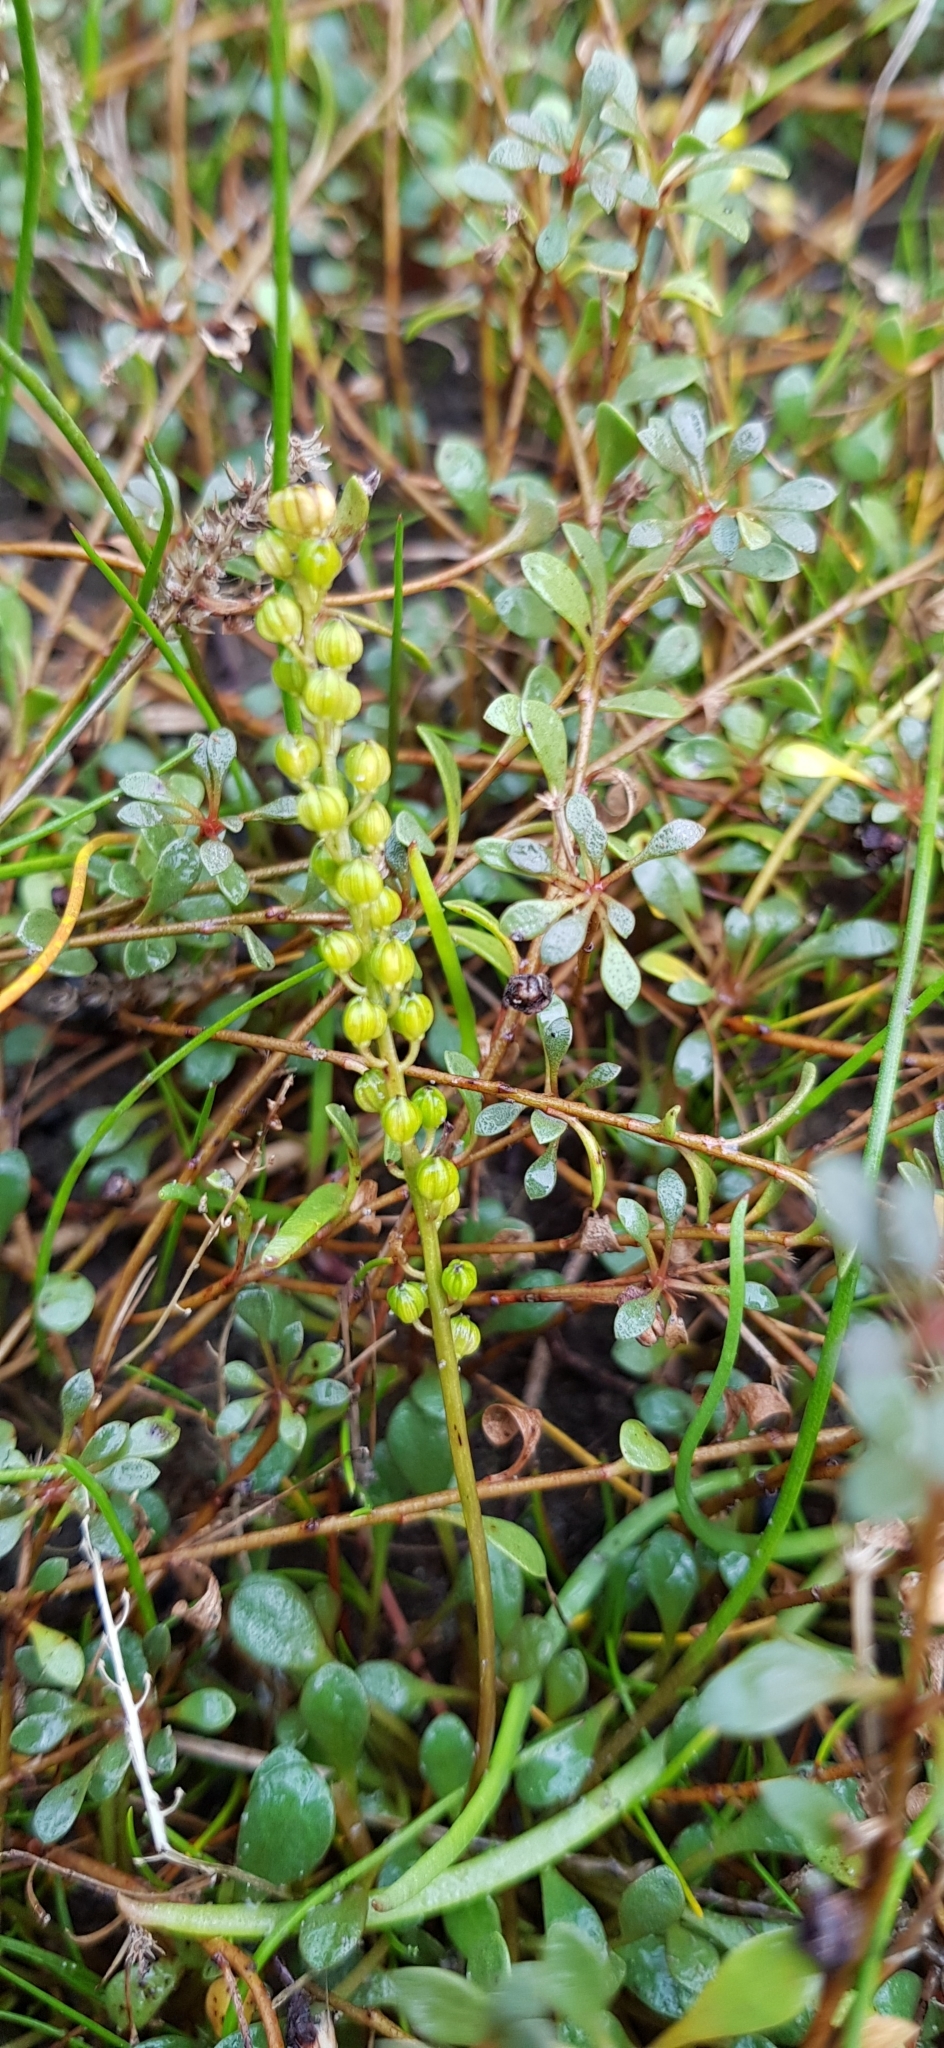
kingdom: Plantae
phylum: Tracheophyta
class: Liliopsida
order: Alismatales
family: Juncaginaceae
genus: Triglochin
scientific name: Triglochin striata
